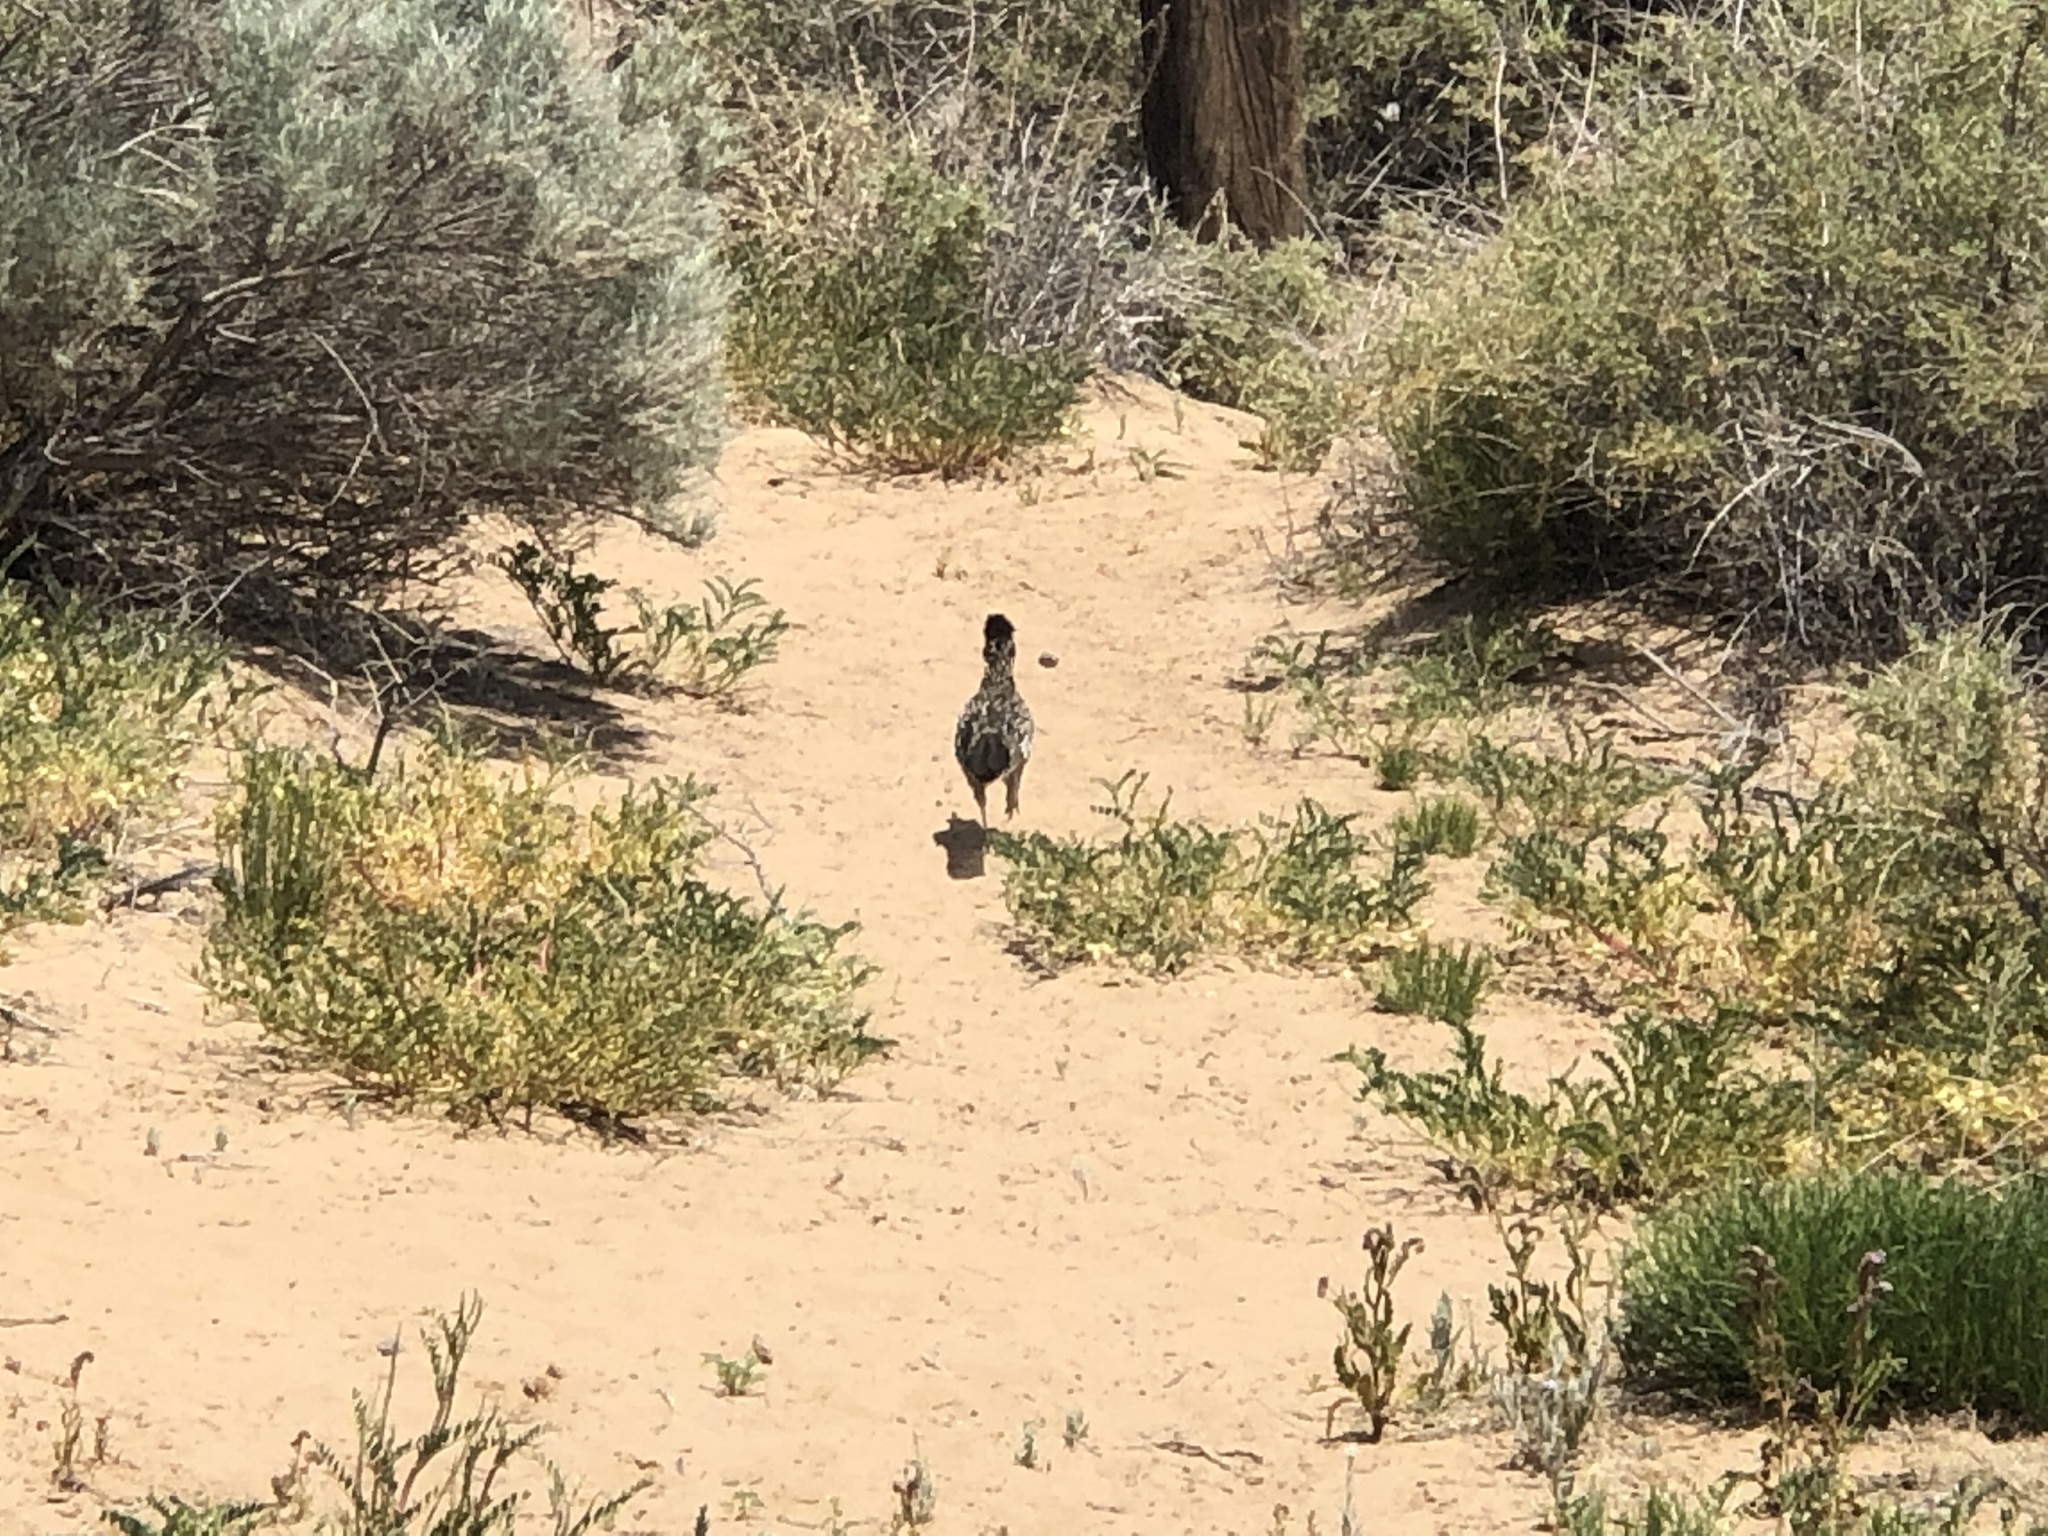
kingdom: Animalia
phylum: Chordata
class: Aves
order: Cuculiformes
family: Cuculidae
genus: Geococcyx
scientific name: Geococcyx californianus
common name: Greater roadrunner
